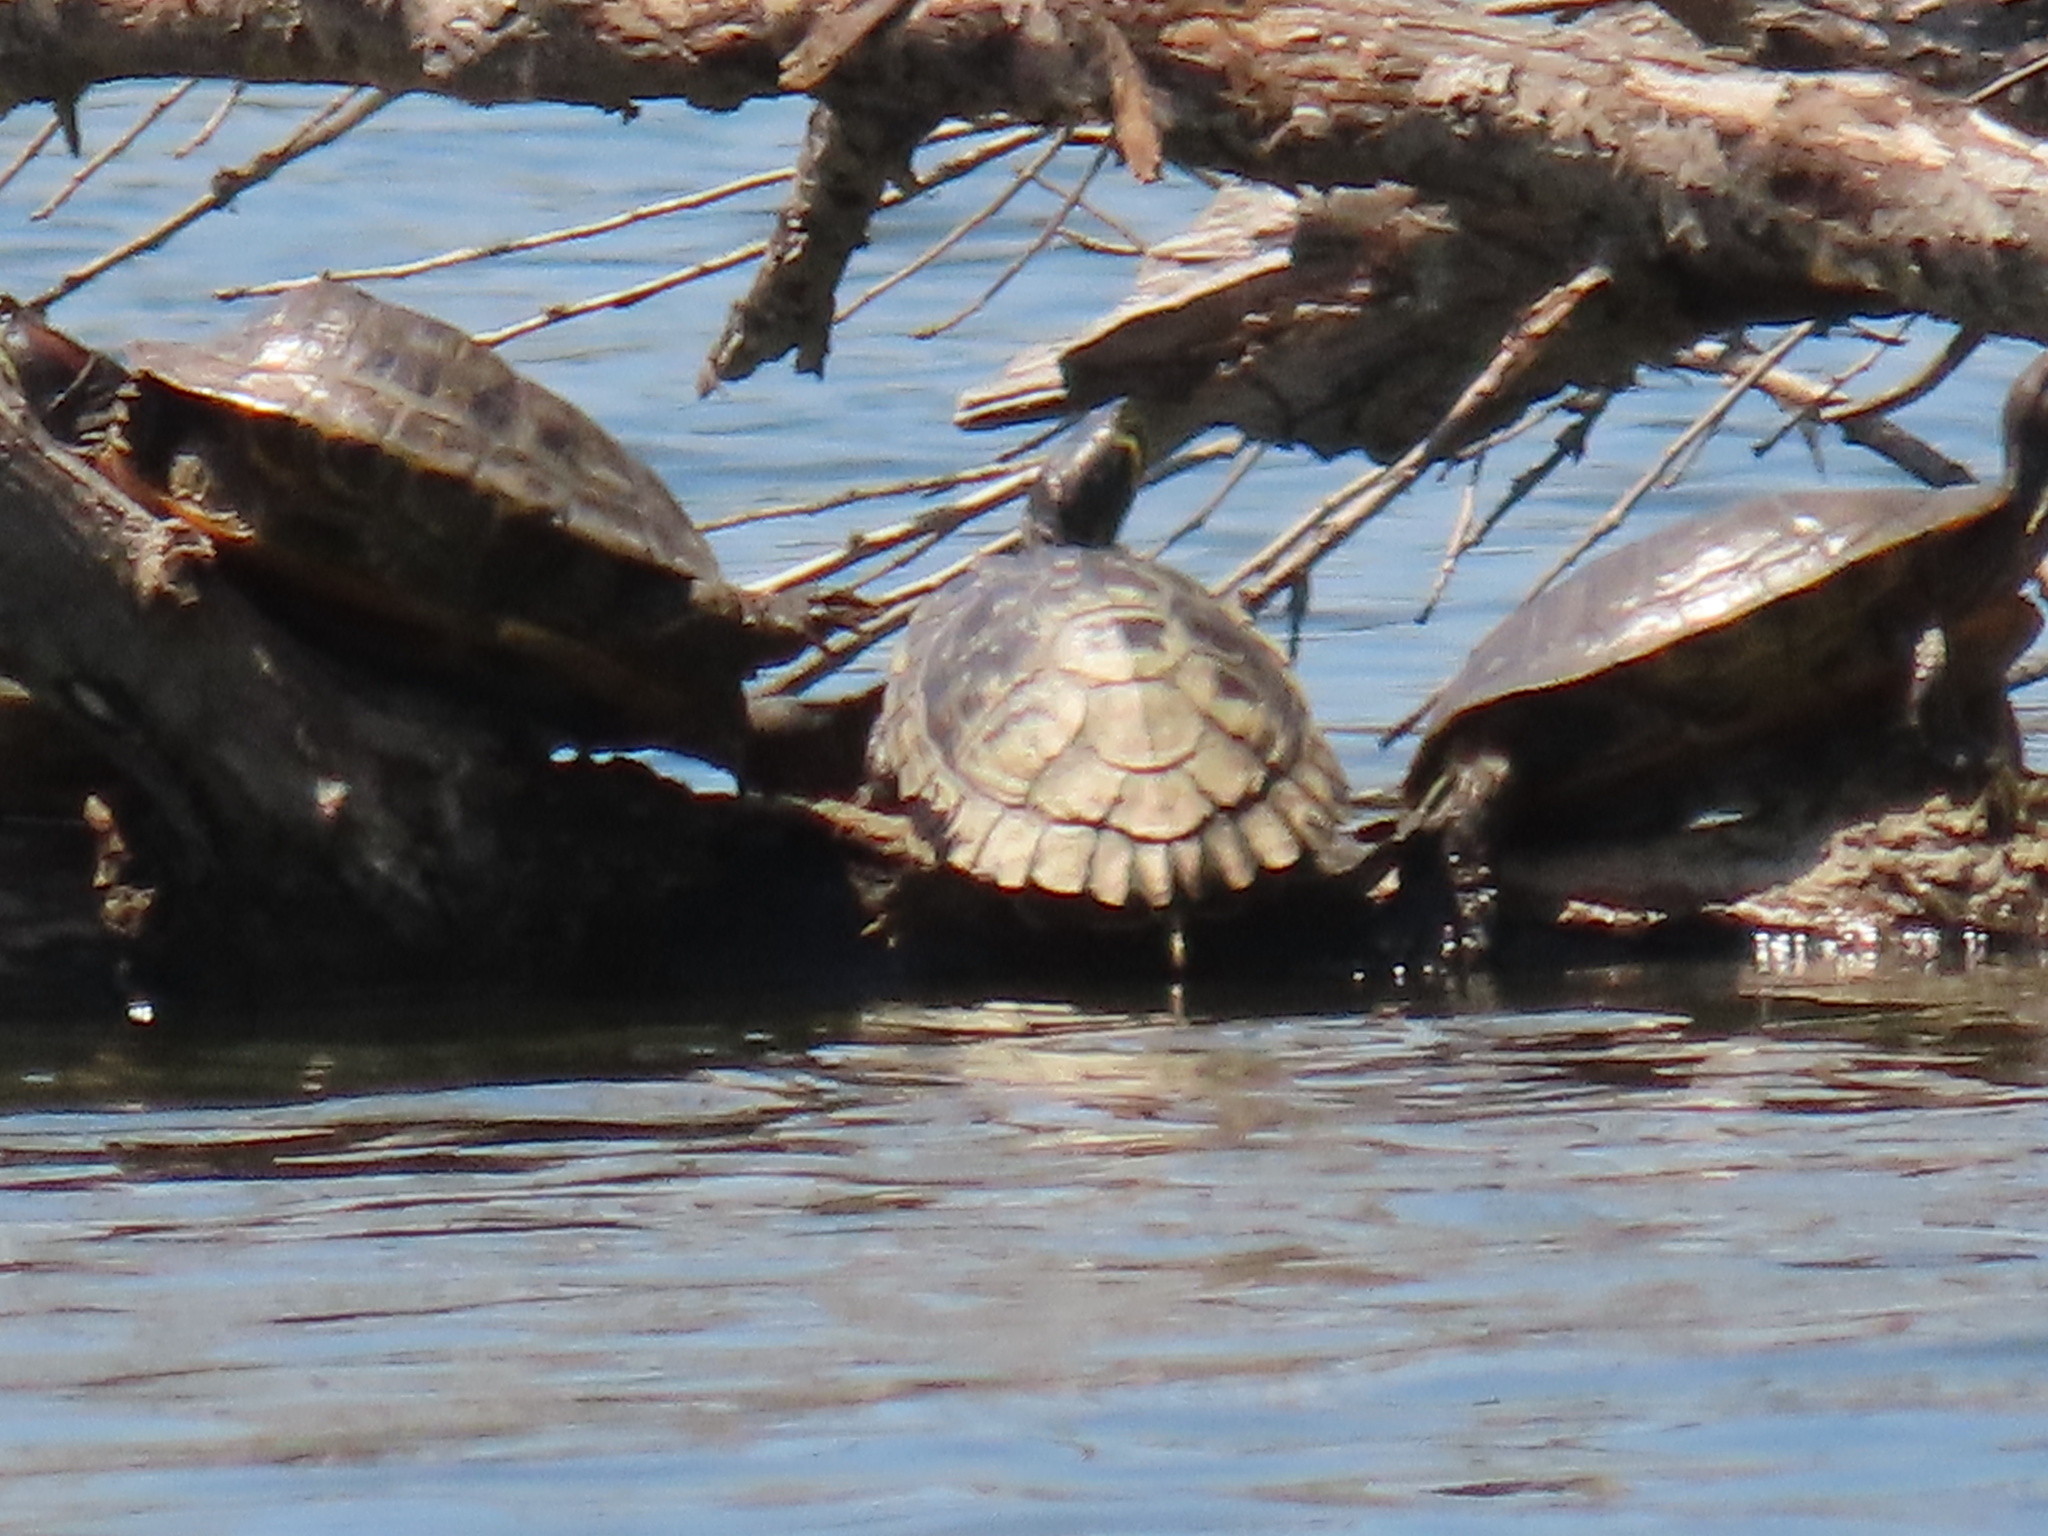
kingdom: Animalia
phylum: Chordata
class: Testudines
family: Emydidae
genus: Trachemys
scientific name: Trachemys scripta
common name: Slider
